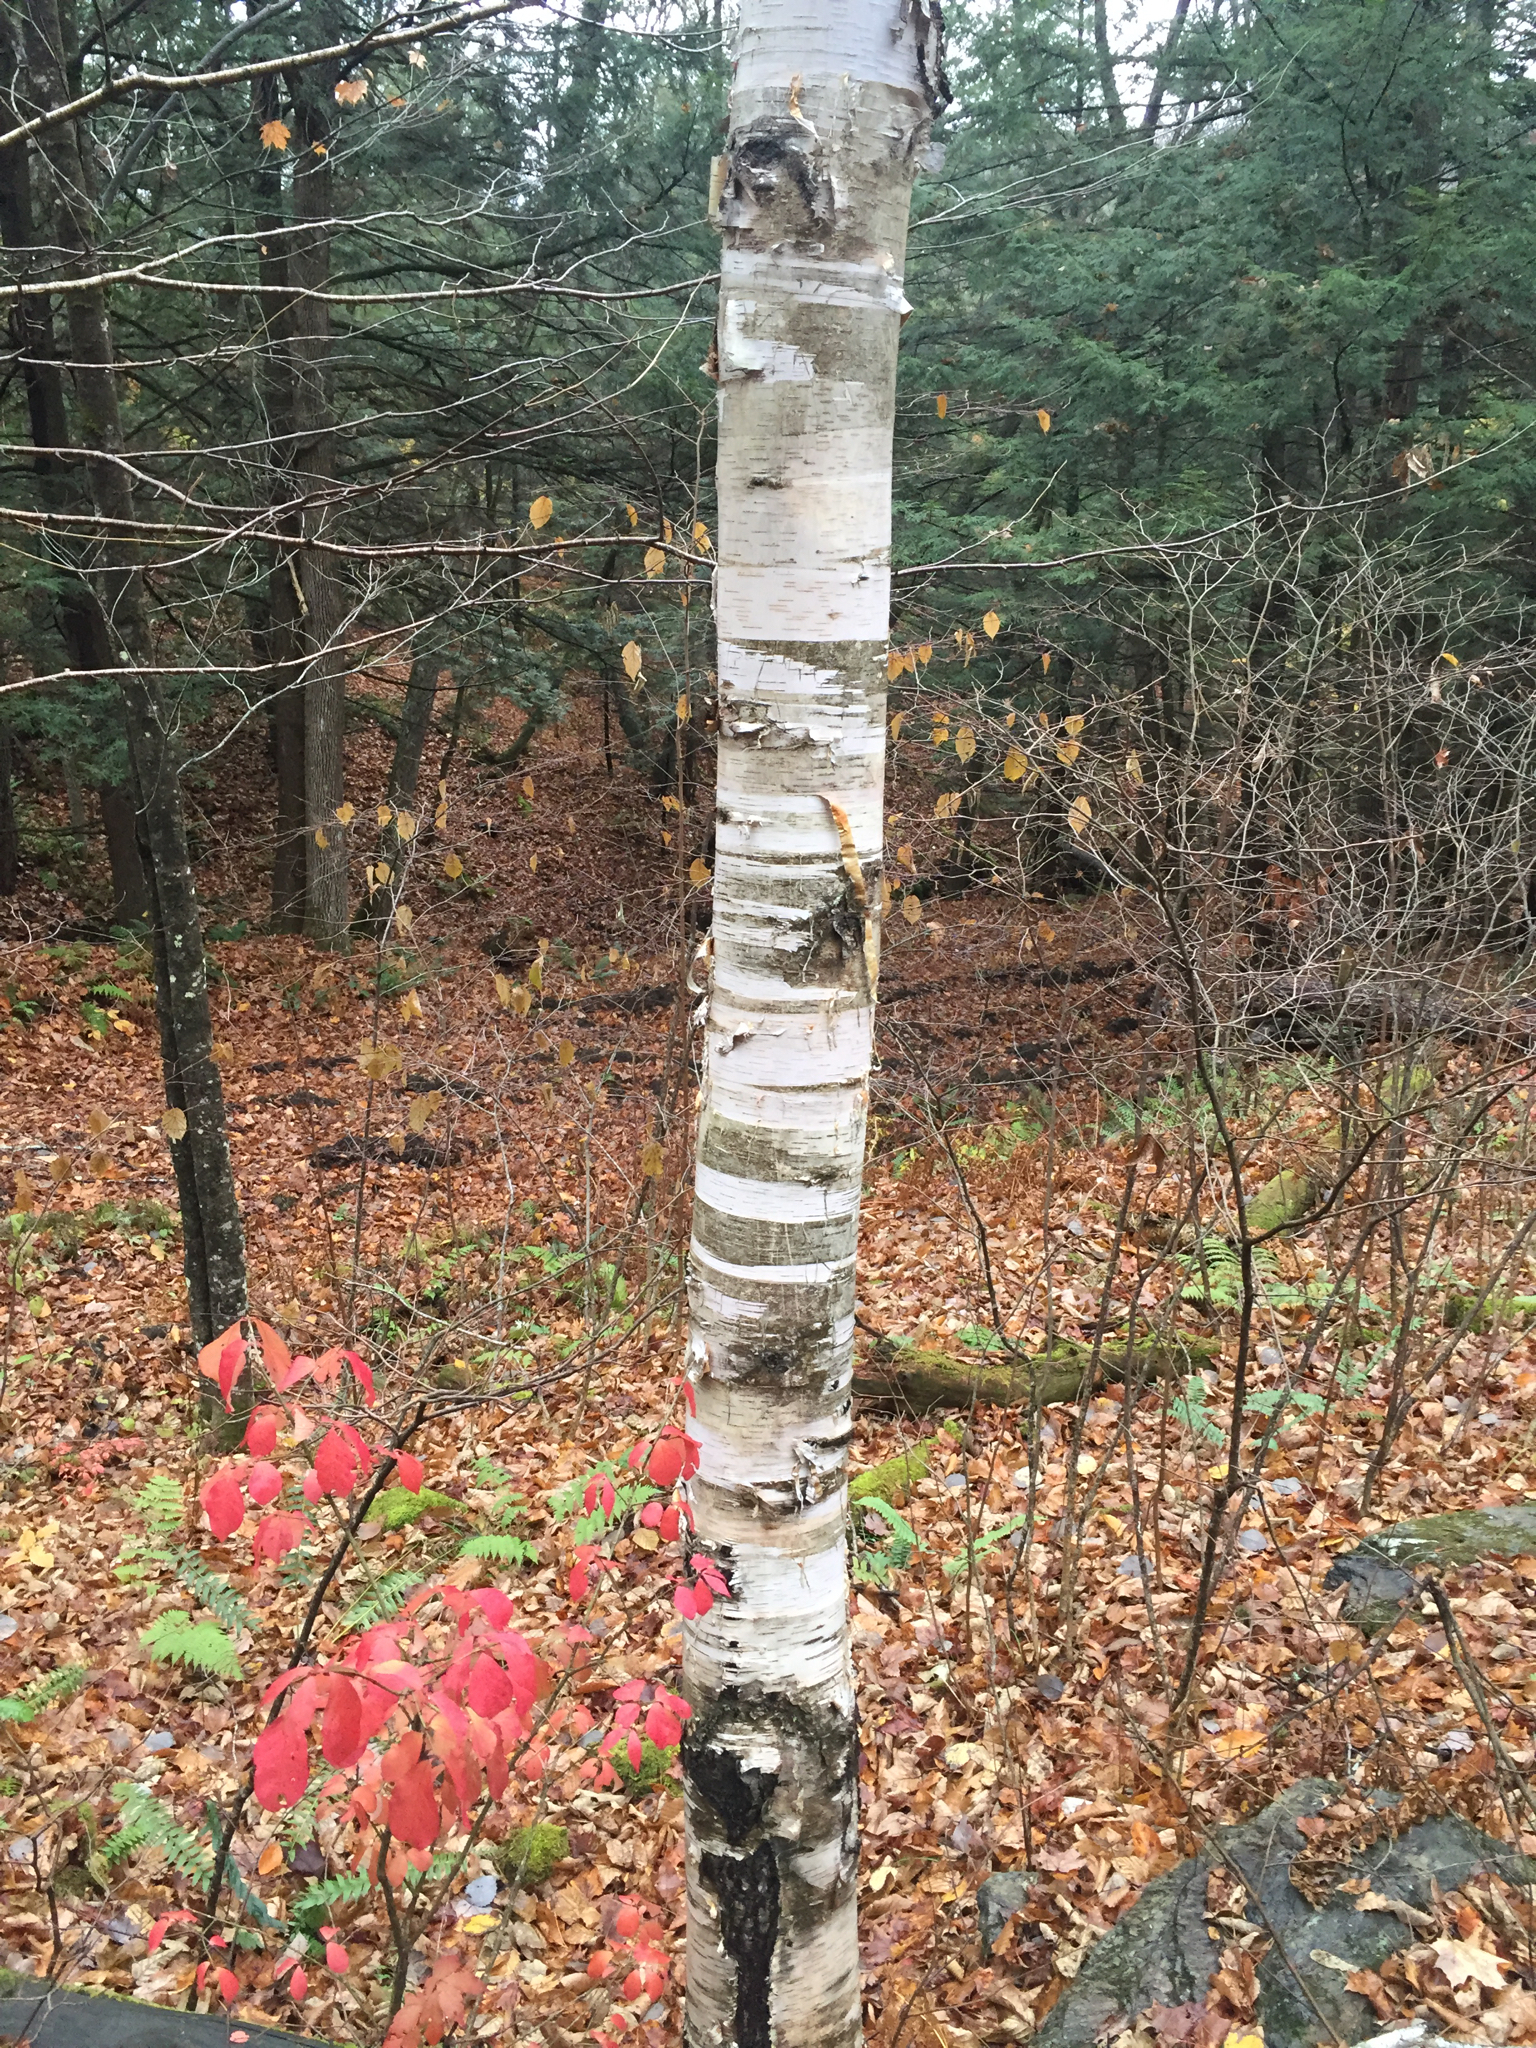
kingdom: Plantae
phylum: Tracheophyta
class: Magnoliopsida
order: Fagales
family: Betulaceae
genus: Betula
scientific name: Betula papyrifera
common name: Paper birch
